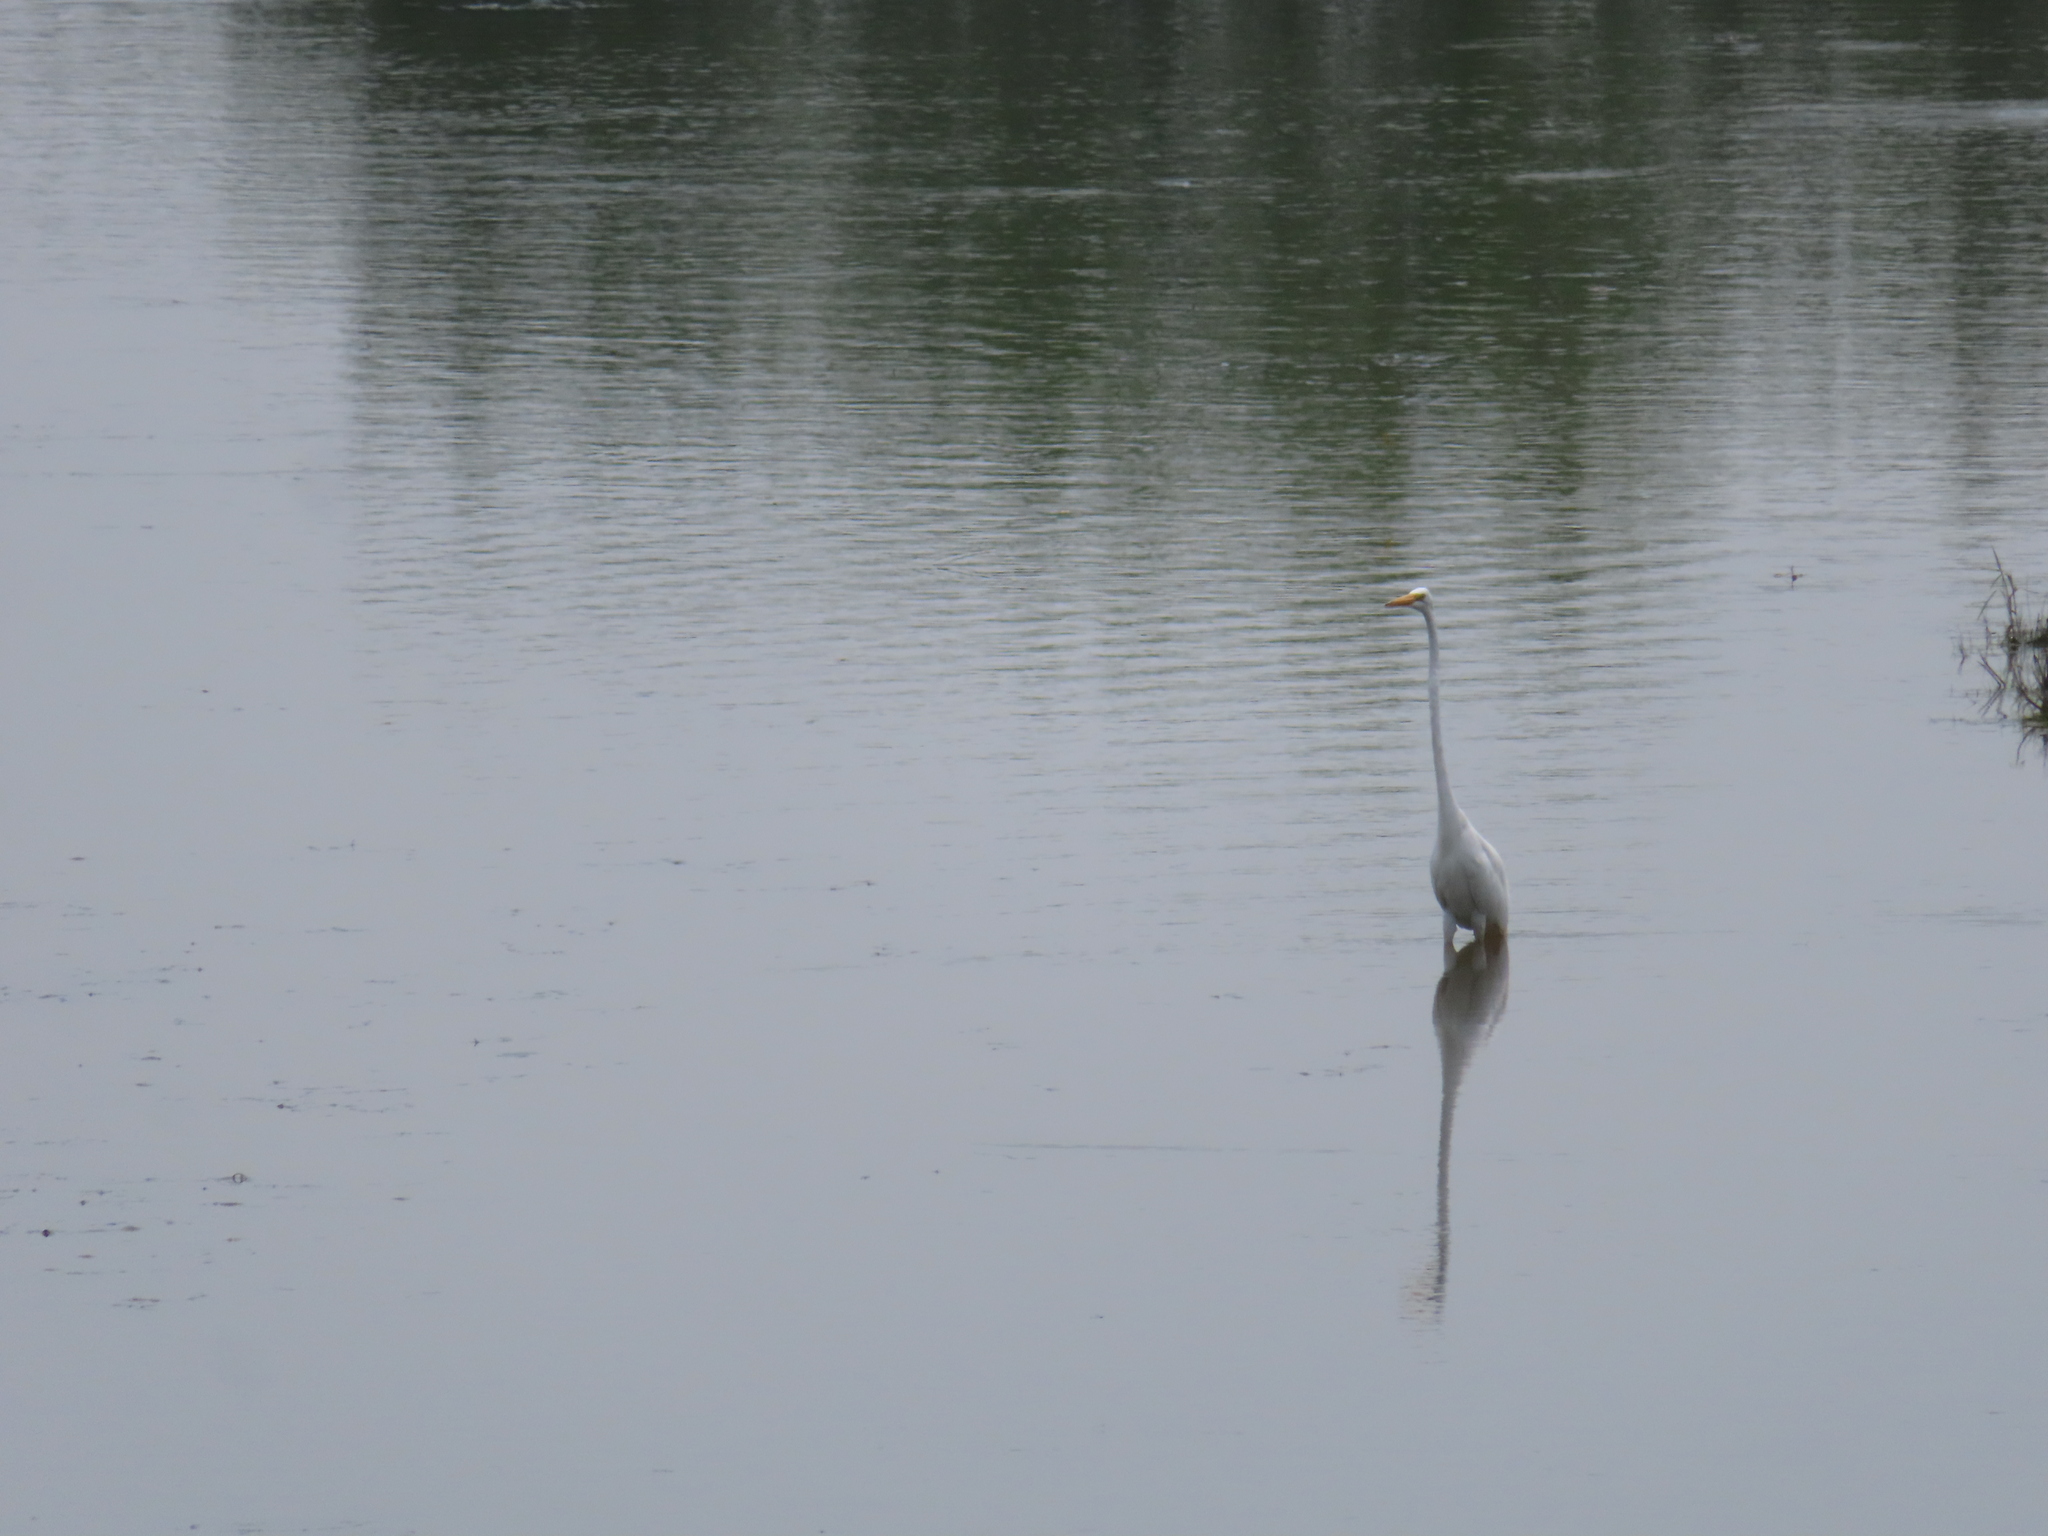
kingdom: Animalia
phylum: Chordata
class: Aves
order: Pelecaniformes
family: Ardeidae
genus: Ardea
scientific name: Ardea alba
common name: Great egret
